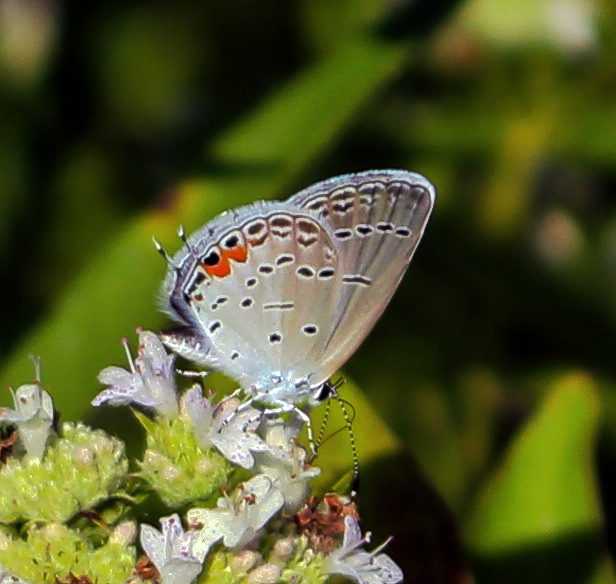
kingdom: Animalia
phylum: Arthropoda
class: Insecta
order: Lepidoptera
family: Lycaenidae
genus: Elkalyce
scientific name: Elkalyce comyntas
